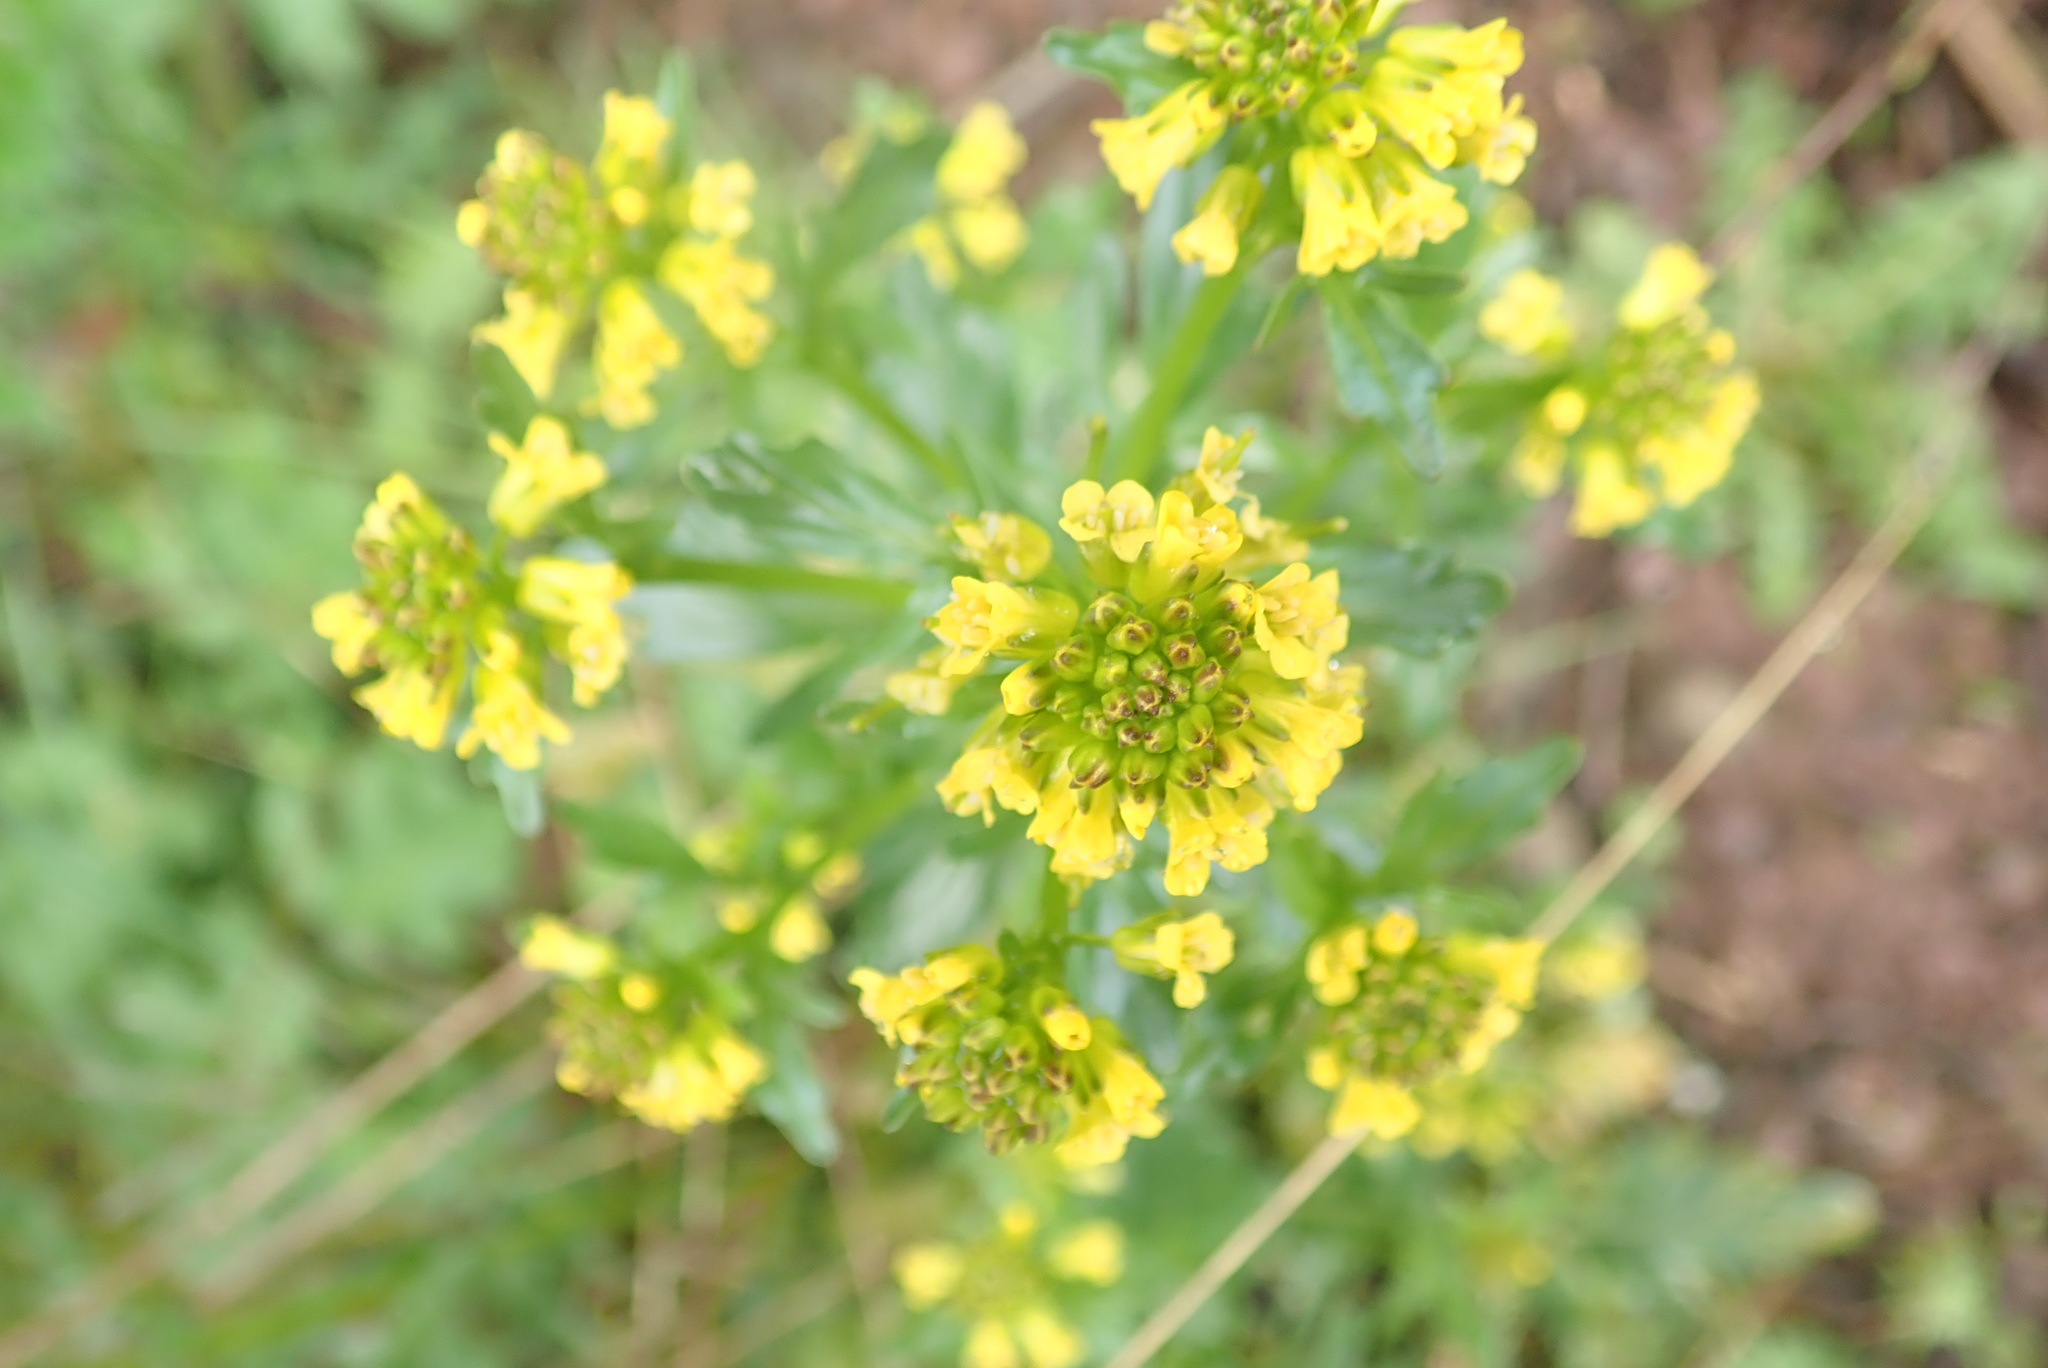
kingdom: Plantae
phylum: Tracheophyta
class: Magnoliopsida
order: Brassicales
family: Brassicaceae
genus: Barbarea
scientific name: Barbarea vulgaris
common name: Cressy-greens
